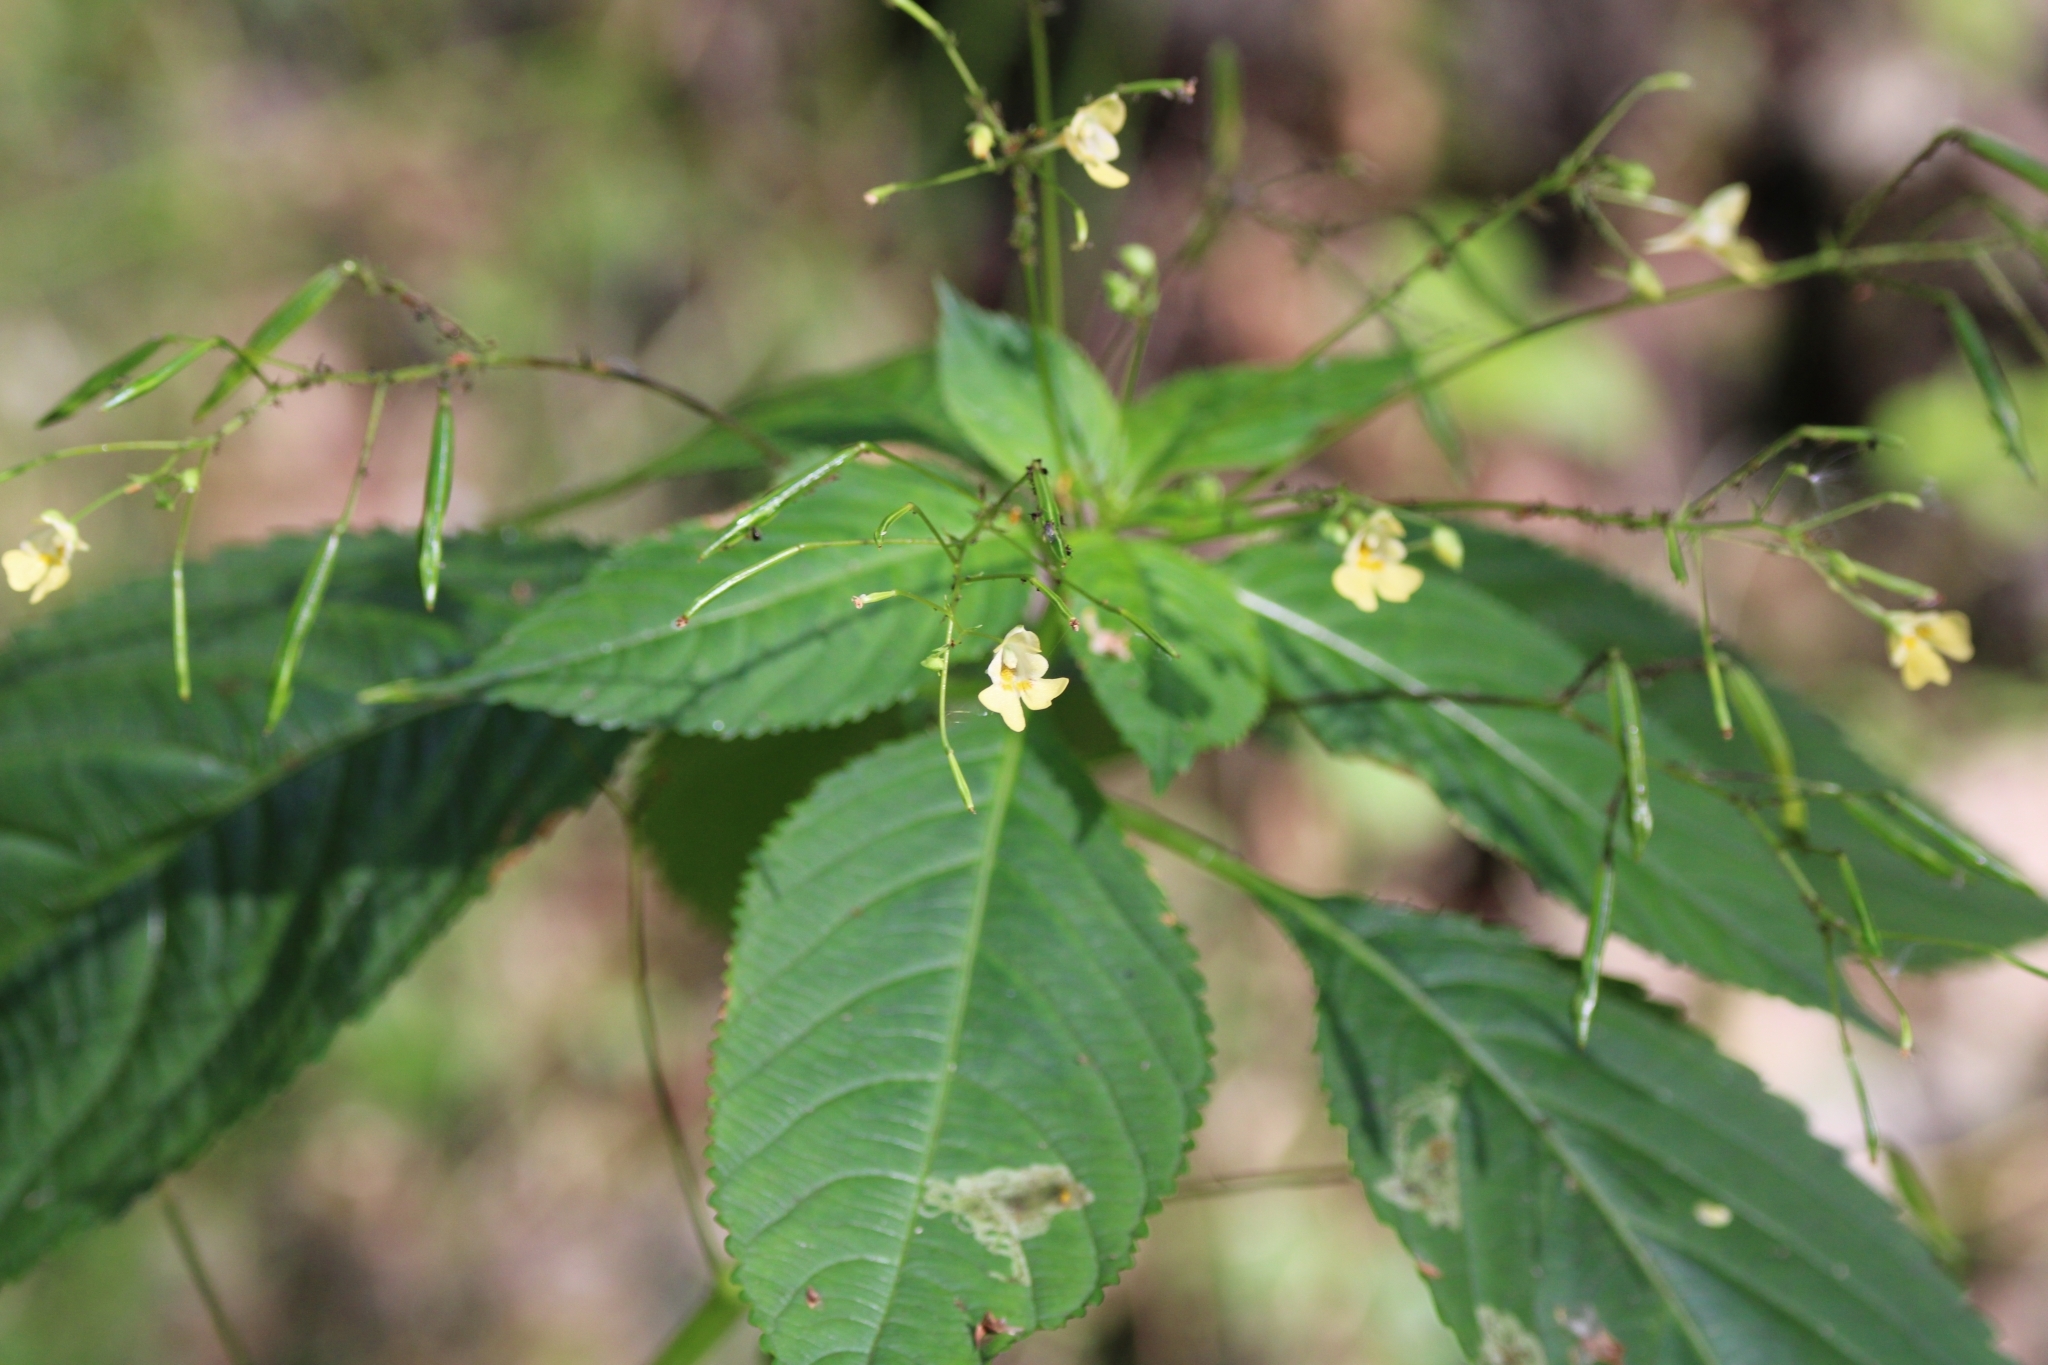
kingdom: Plantae
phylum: Tracheophyta
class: Magnoliopsida
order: Ericales
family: Balsaminaceae
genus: Impatiens
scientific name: Impatiens parviflora
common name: Small balsam
